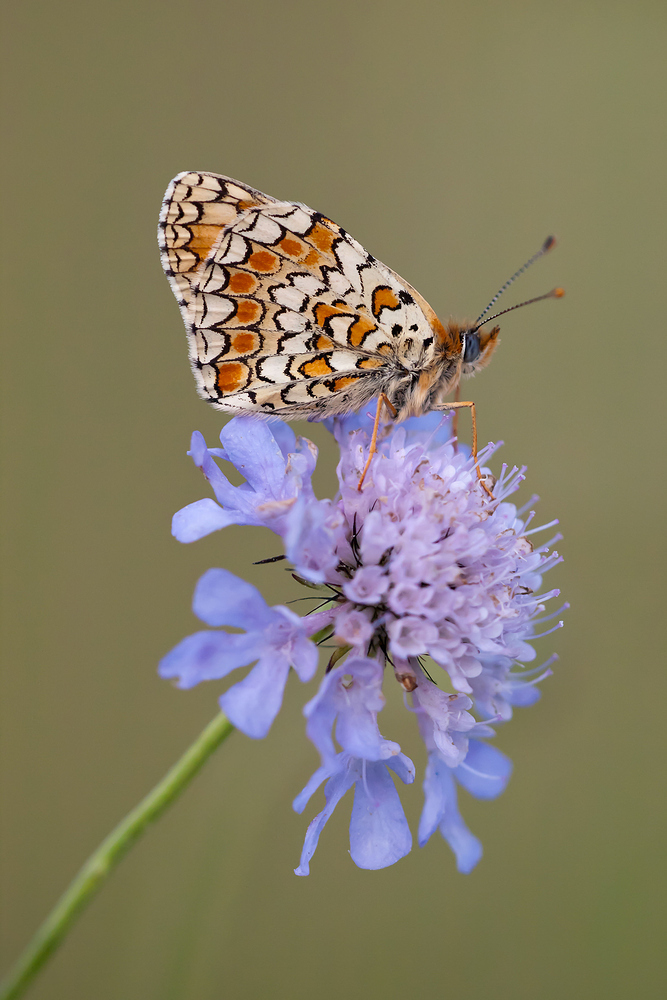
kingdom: Animalia
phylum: Arthropoda
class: Insecta
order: Lepidoptera
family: Nymphalidae
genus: Melitaea
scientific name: Melitaea phoebe
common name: Knapweed fritillary
